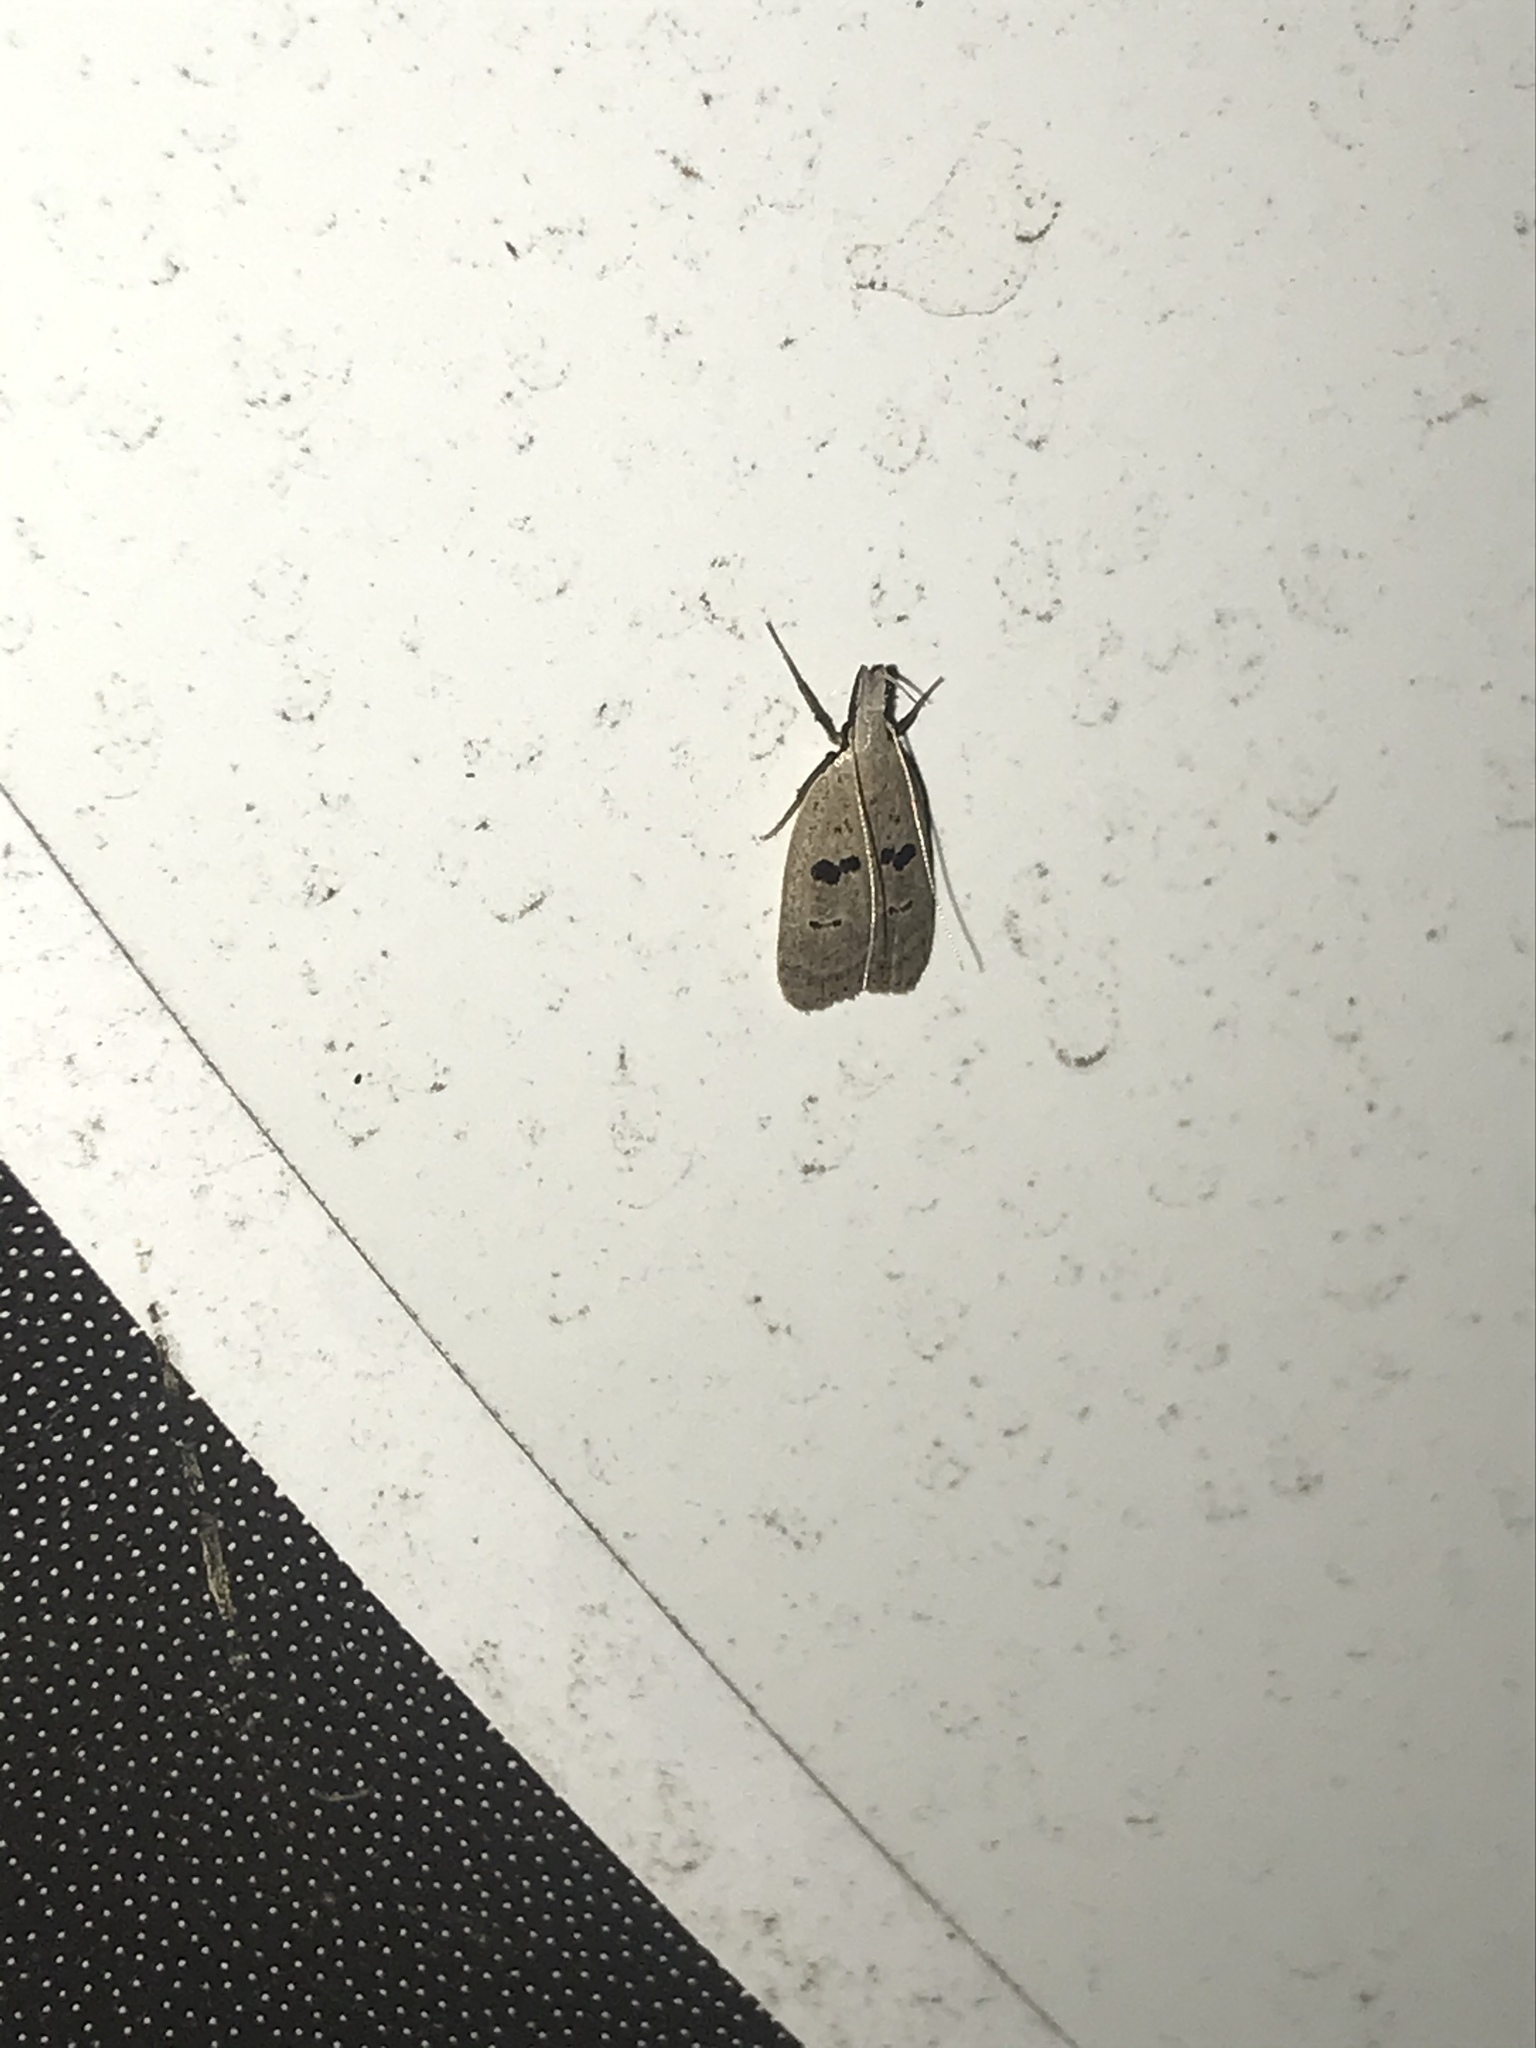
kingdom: Animalia
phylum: Arthropoda
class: Insecta
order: Lepidoptera
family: Gelechiidae
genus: Dichomeris
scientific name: Dichomeris glenni
